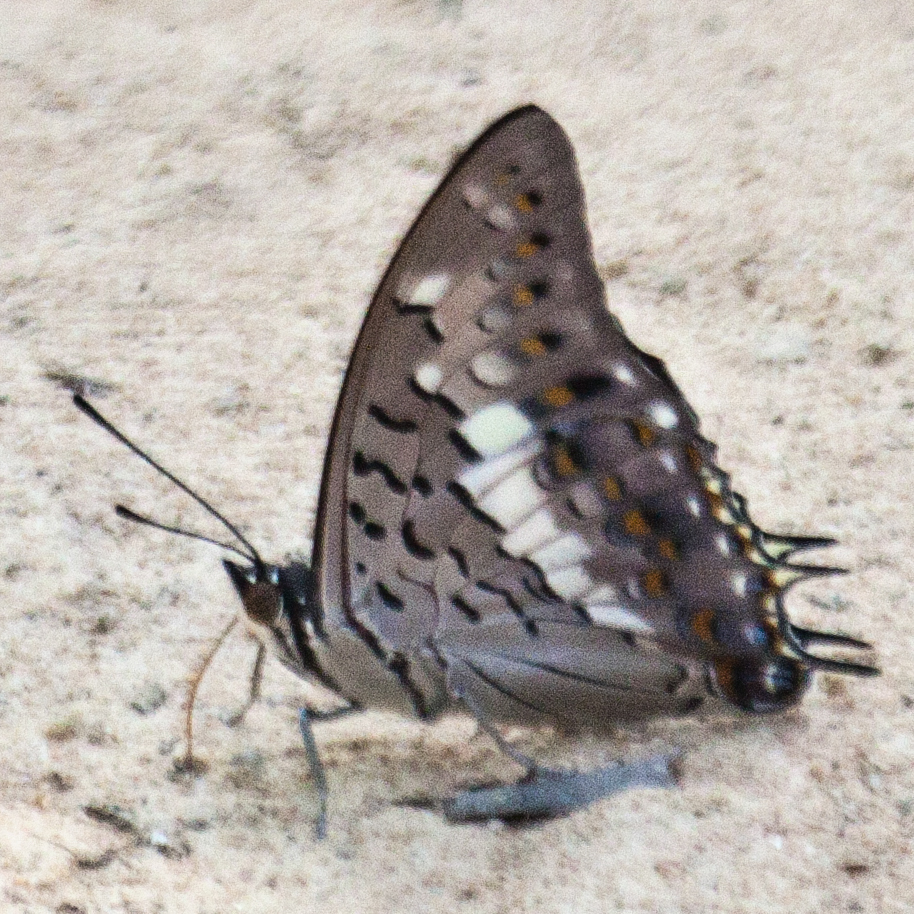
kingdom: Animalia
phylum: Arthropoda
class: Insecta
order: Lepidoptera
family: Nymphalidae
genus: Charaxes
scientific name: Charaxes solon
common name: Black rajah
